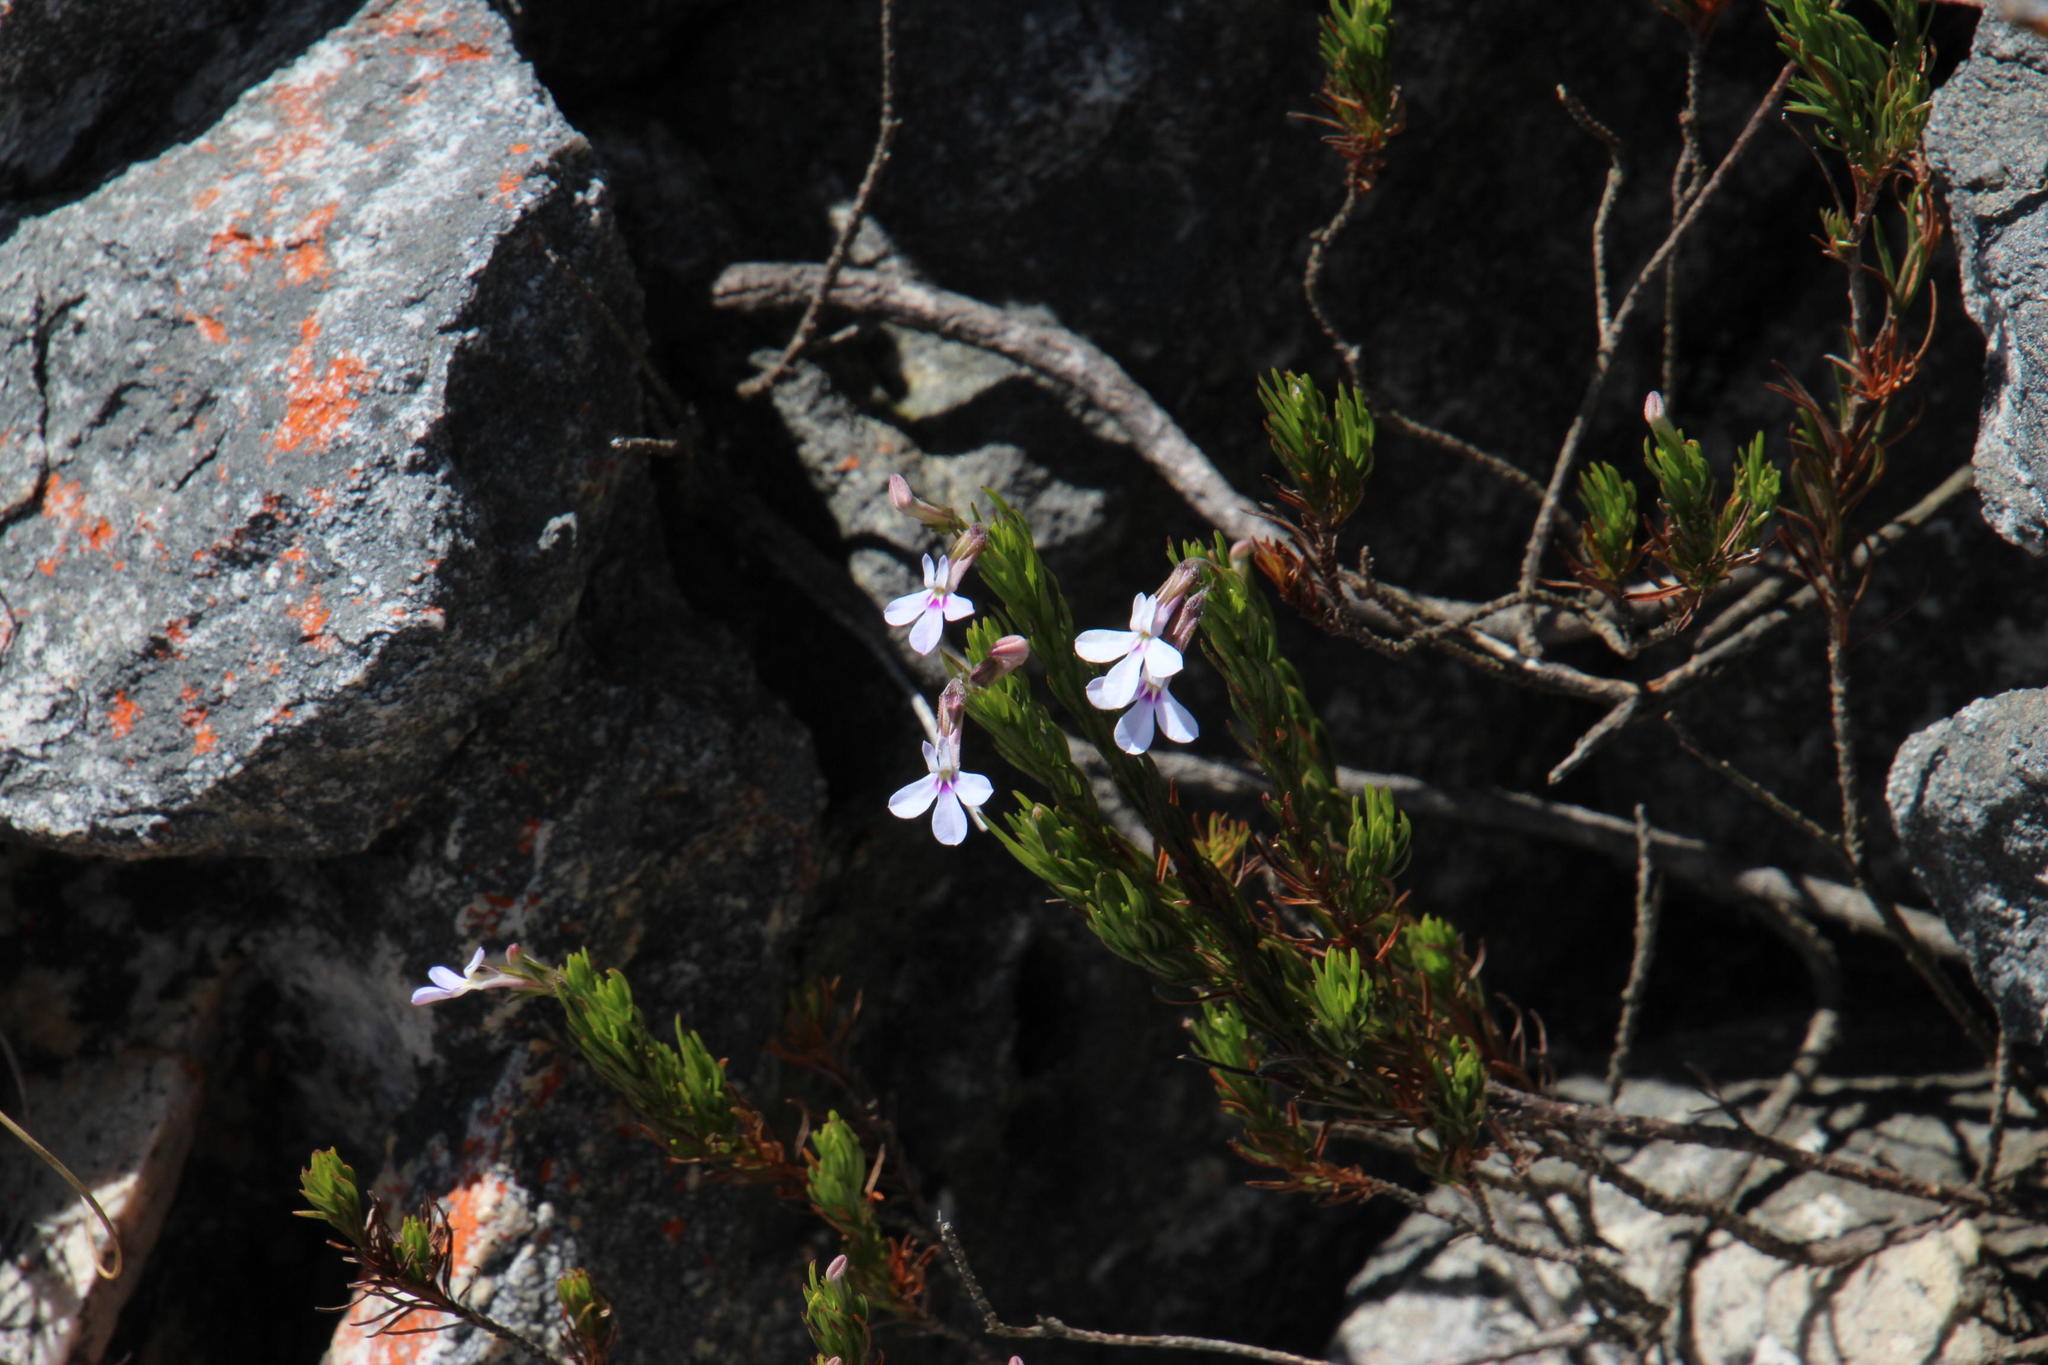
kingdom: Plantae
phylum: Tracheophyta
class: Magnoliopsida
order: Asterales
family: Campanulaceae
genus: Lobelia
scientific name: Lobelia pinifolia
